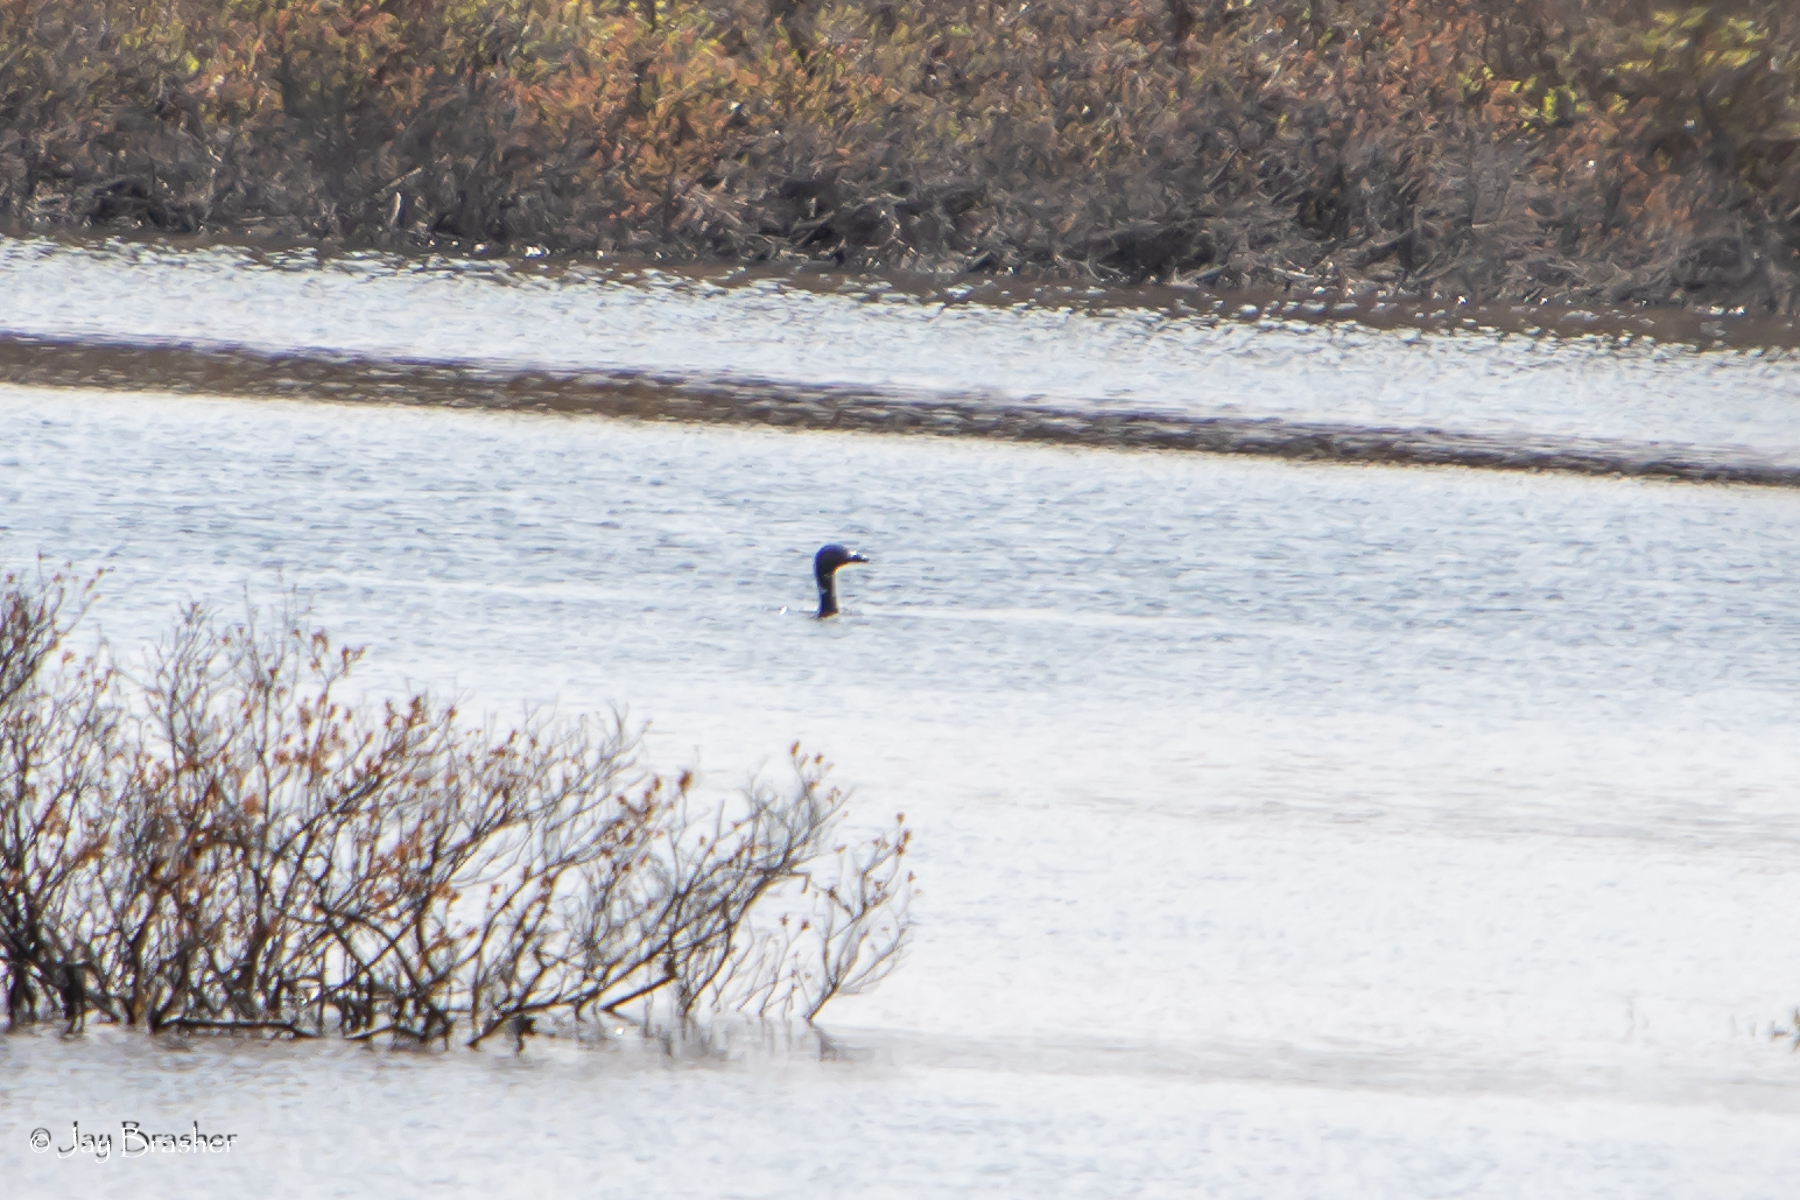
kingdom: Animalia
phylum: Chordata
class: Aves
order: Gaviiformes
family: Gaviidae
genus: Gavia
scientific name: Gavia immer
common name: Common loon
